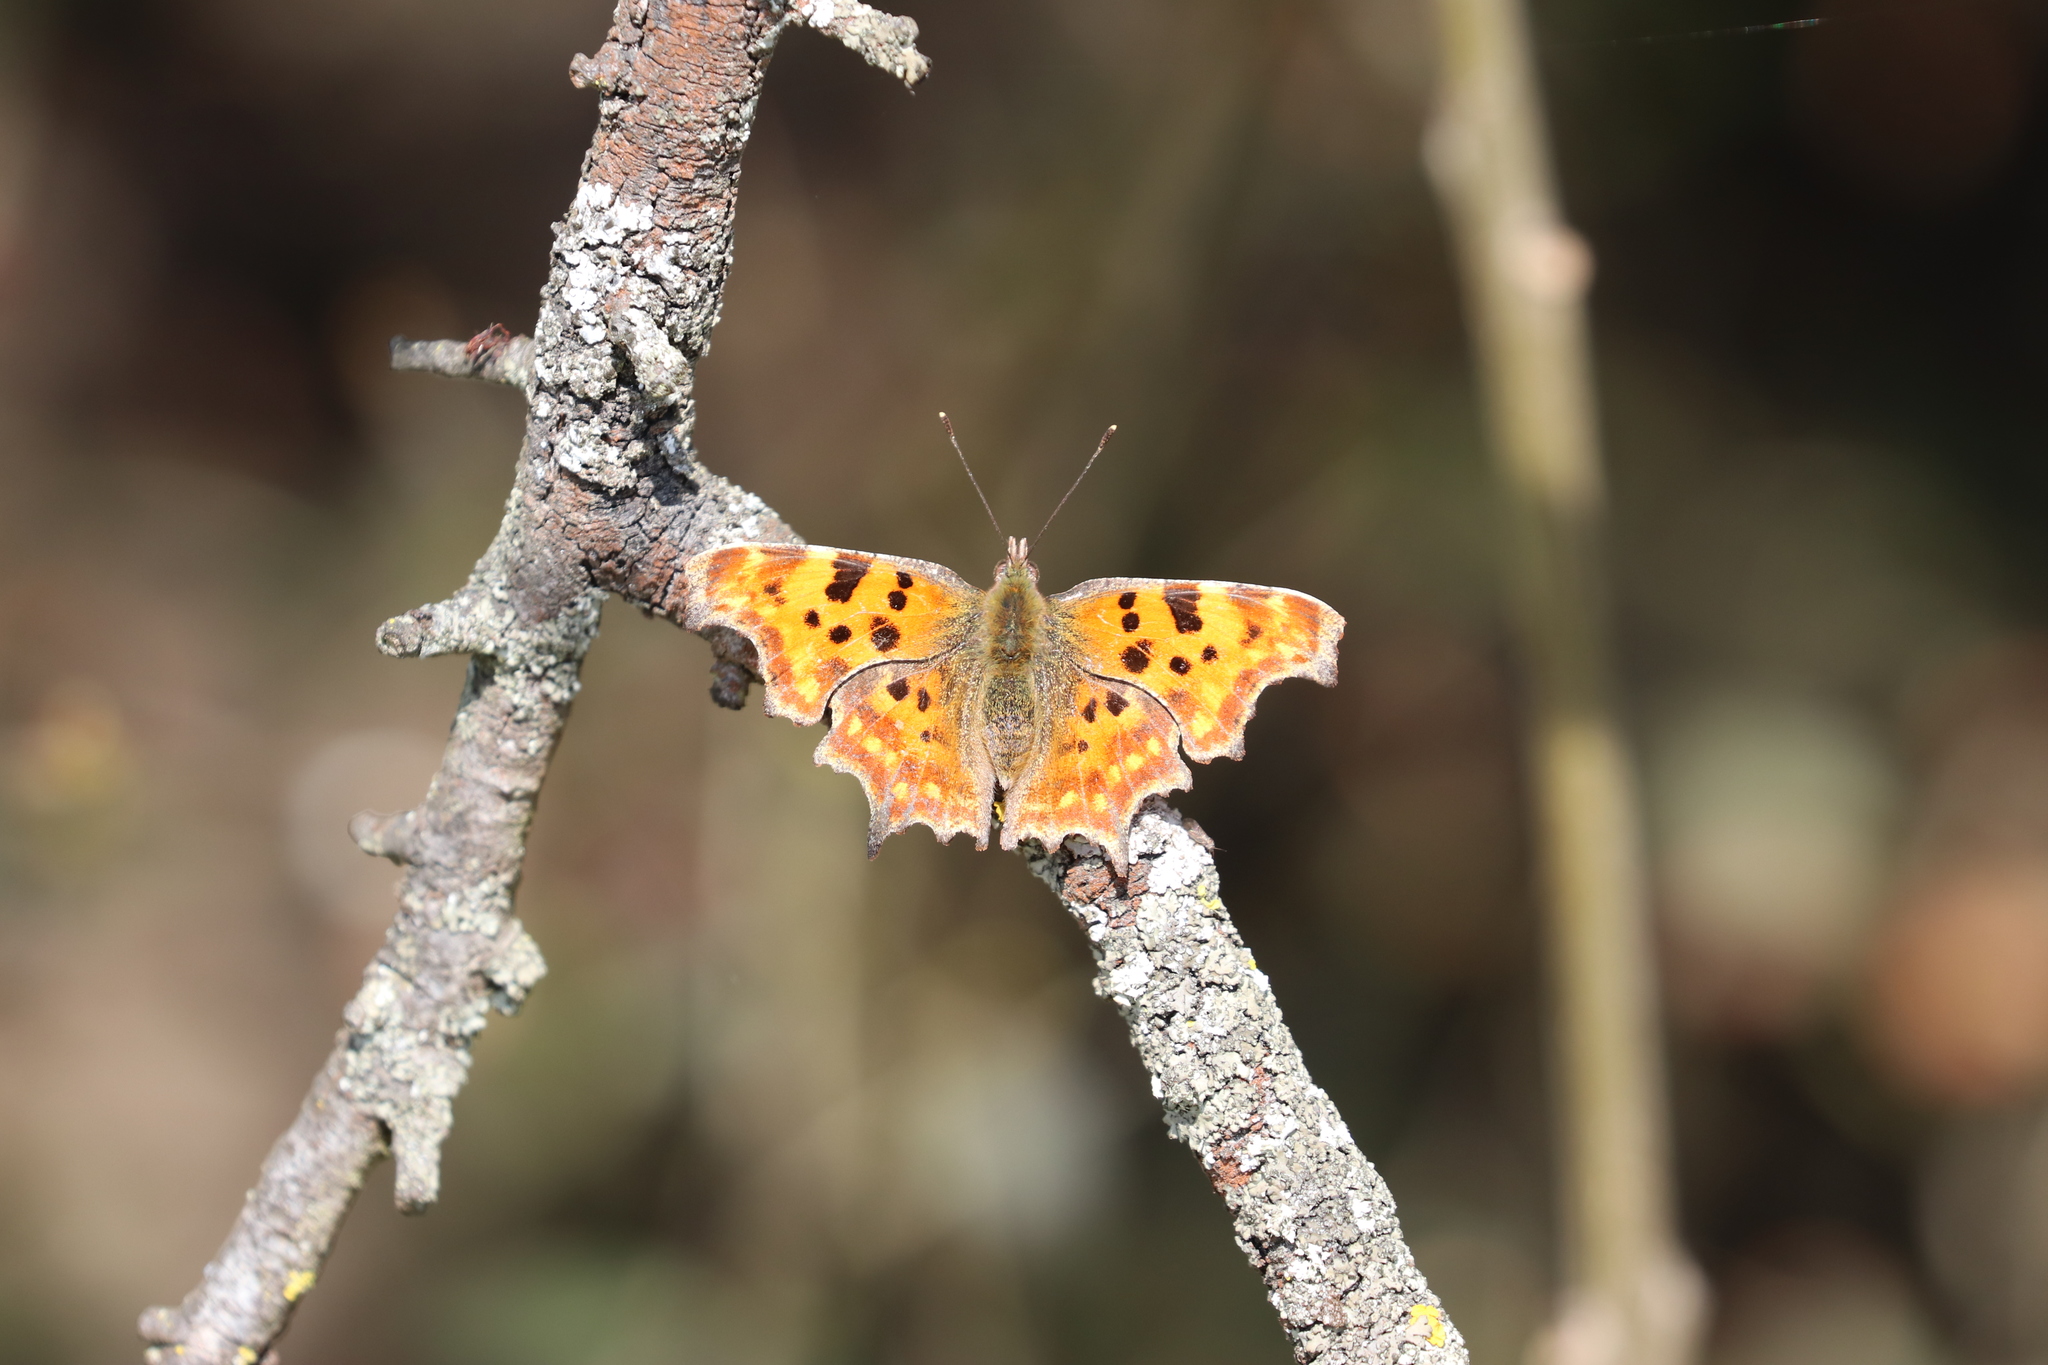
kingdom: Animalia
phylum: Arthropoda
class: Insecta
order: Lepidoptera
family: Nymphalidae
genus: Polygonia
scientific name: Polygonia c-album
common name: Comma
